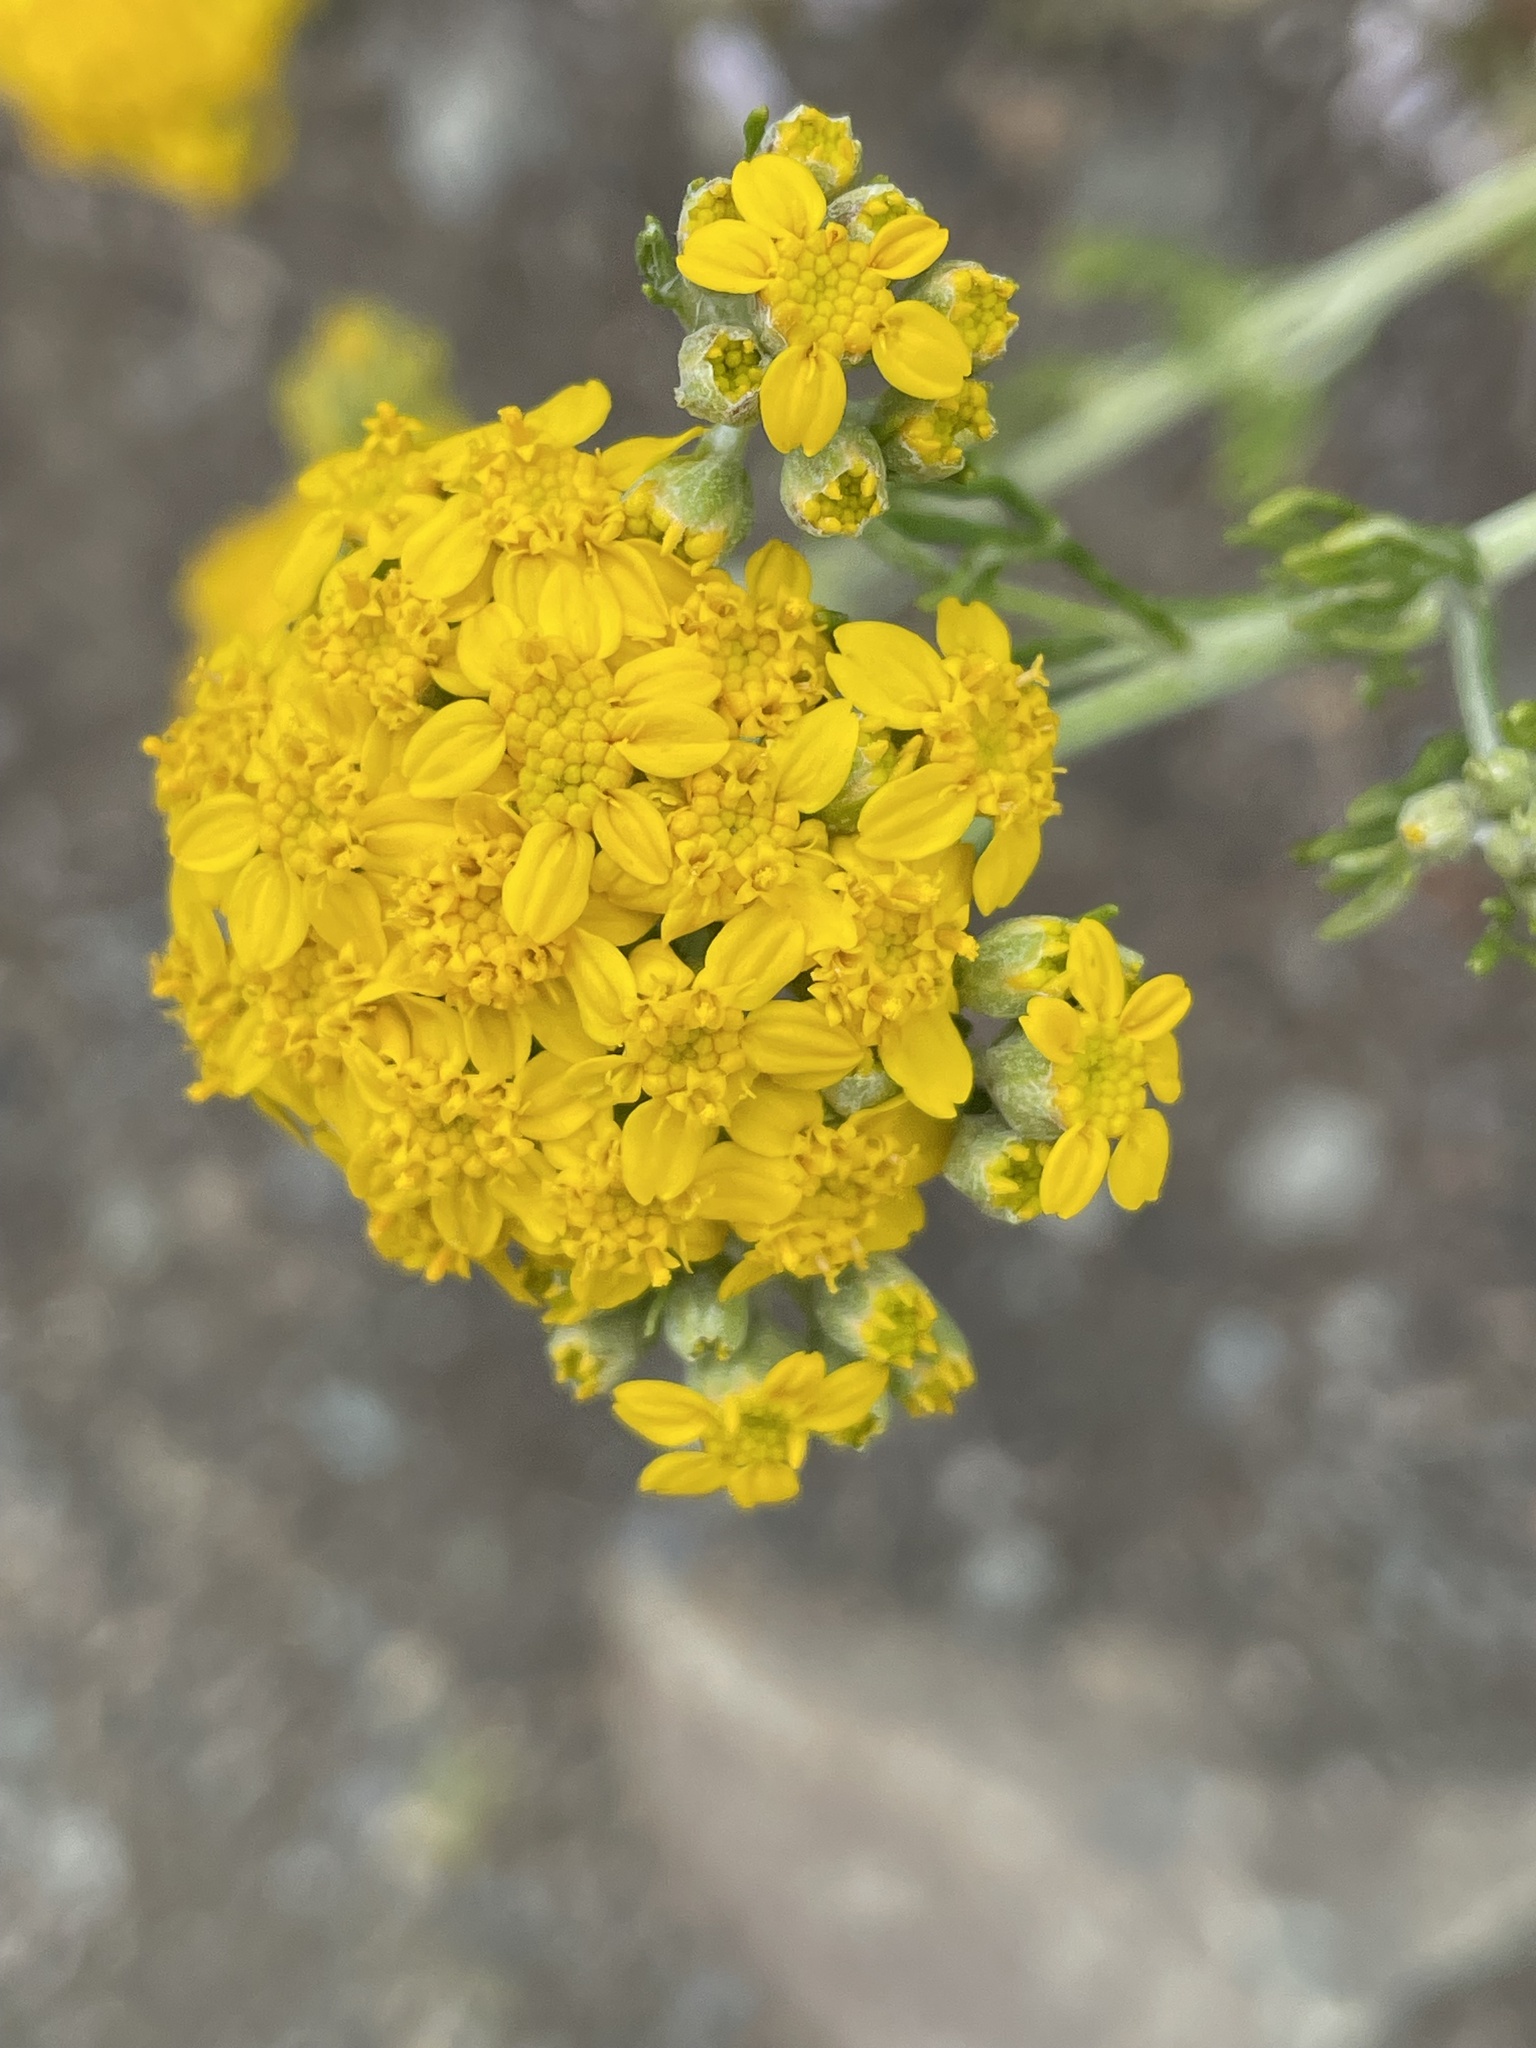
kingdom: Plantae
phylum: Tracheophyta
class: Magnoliopsida
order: Asterales
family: Asteraceae
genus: Eriophyllum
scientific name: Eriophyllum confertiflorum
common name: Golden-yarrow
